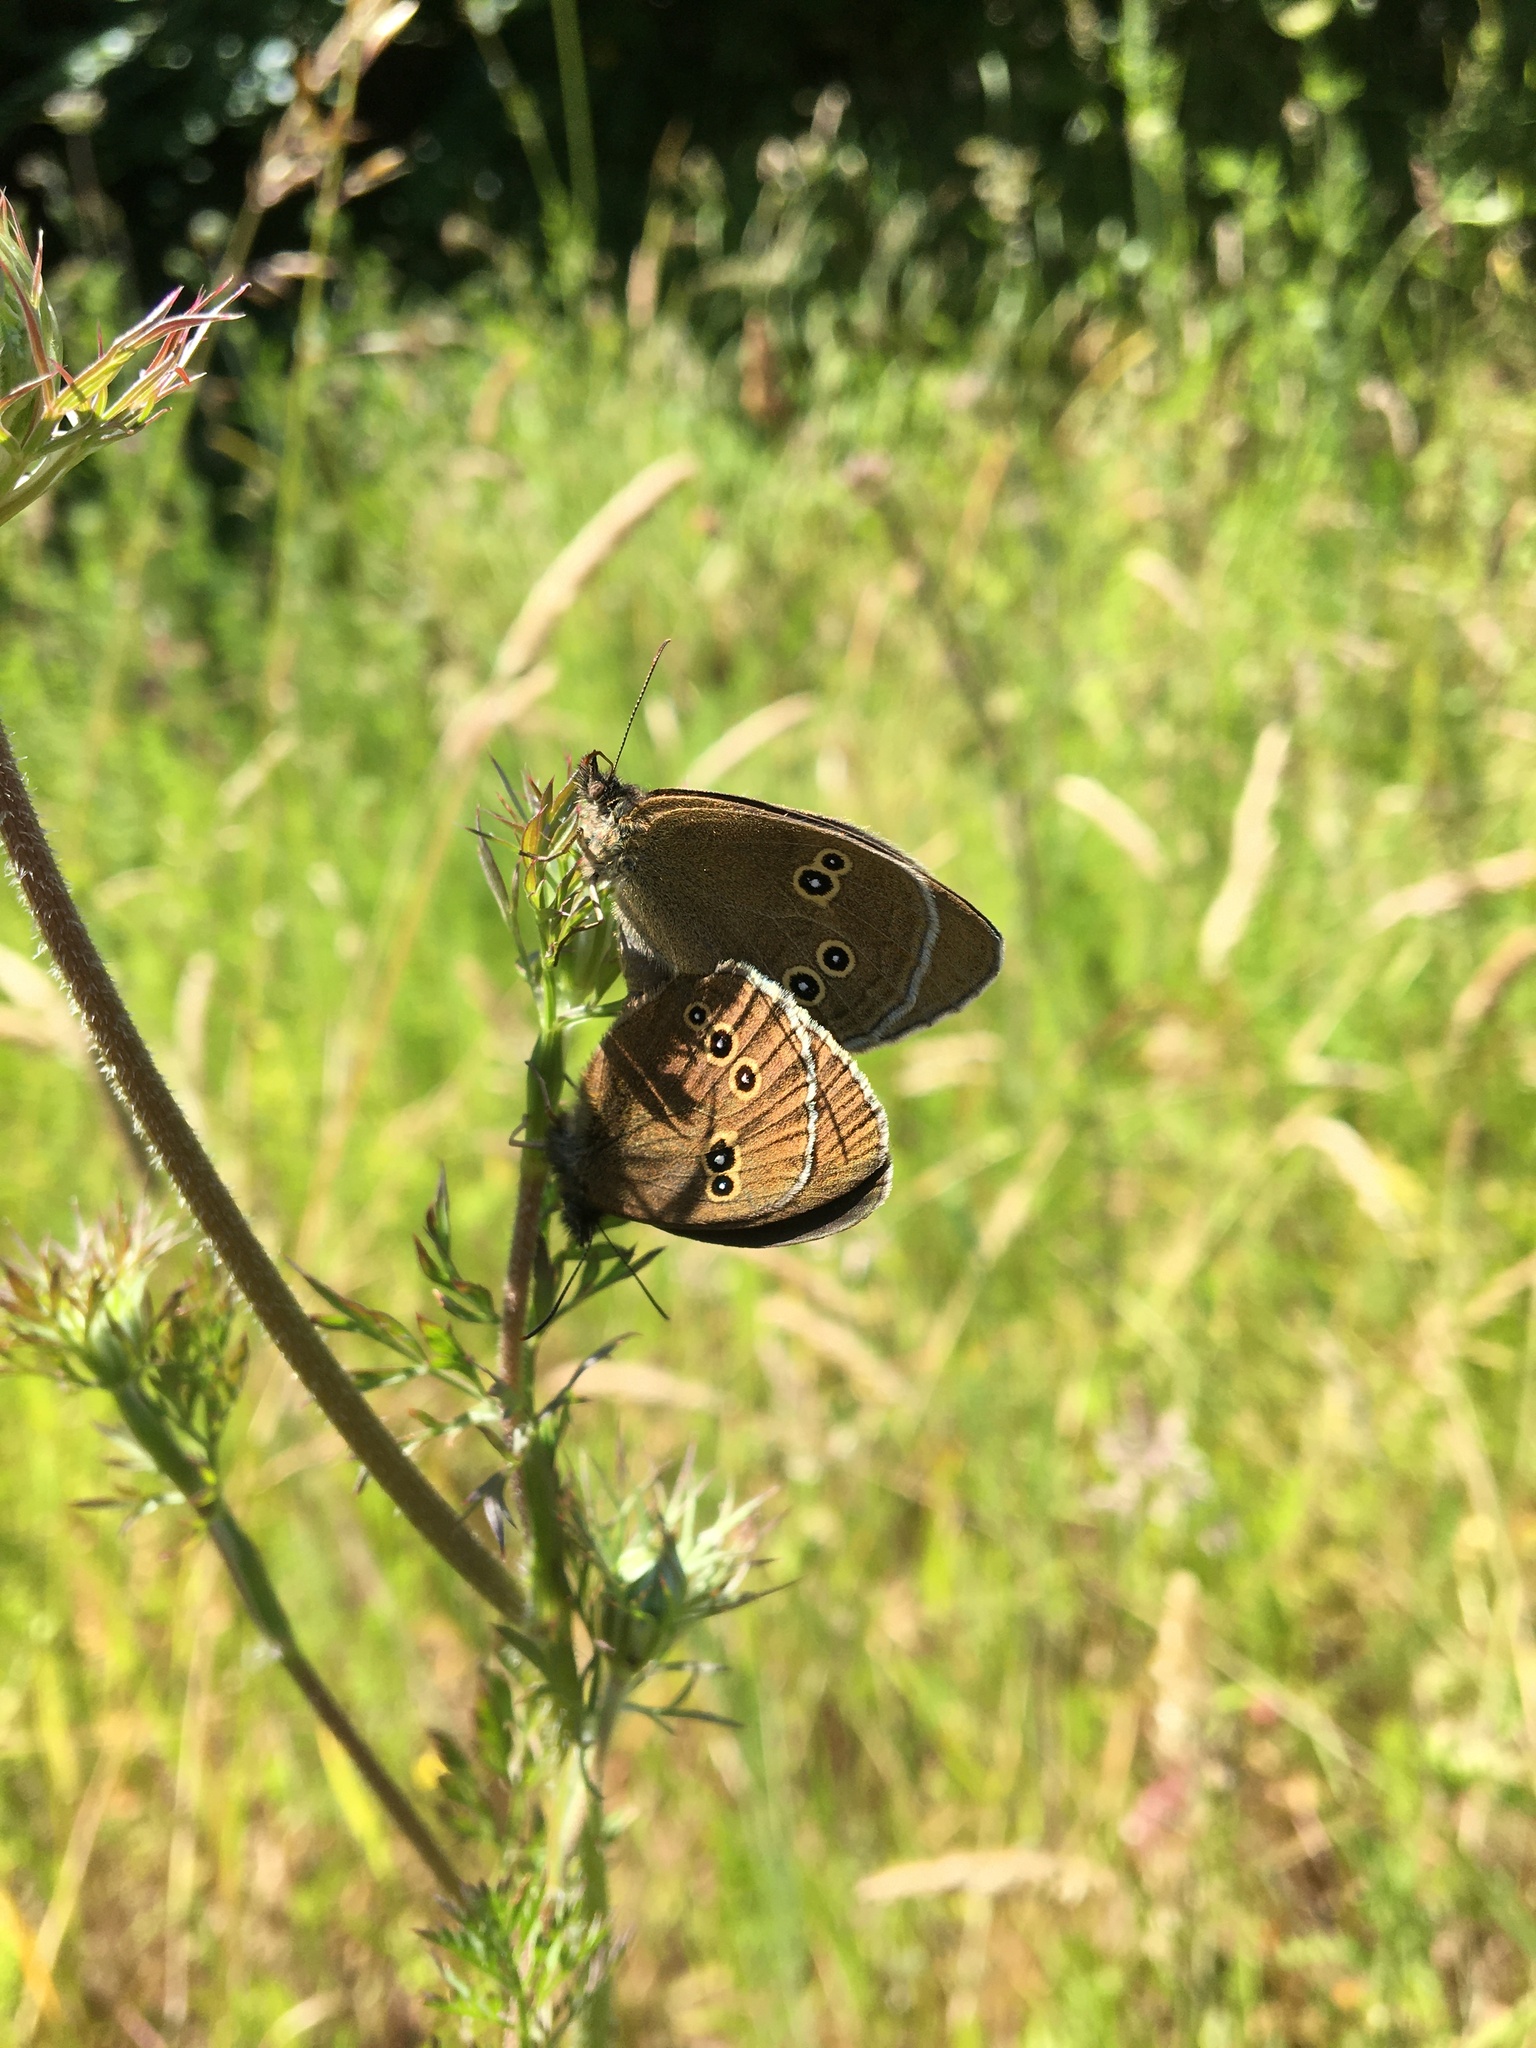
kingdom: Animalia
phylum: Arthropoda
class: Insecta
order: Lepidoptera
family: Nymphalidae
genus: Aphantopus
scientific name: Aphantopus hyperantus
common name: Ringlet
